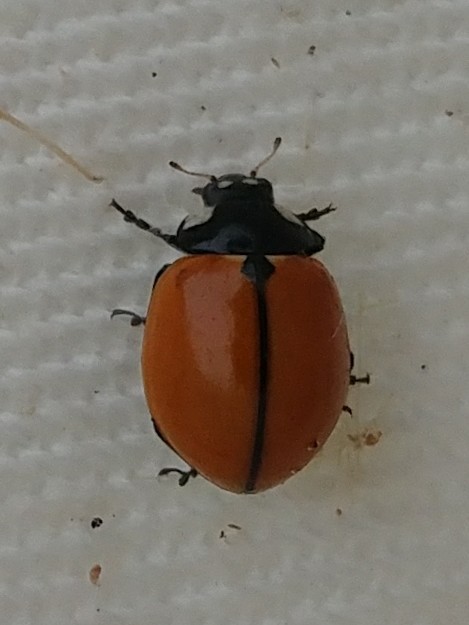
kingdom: Animalia
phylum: Arthropoda
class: Insecta
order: Coleoptera
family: Coccinellidae
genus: Coccinella
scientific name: Coccinella californica
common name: Lady beetle
